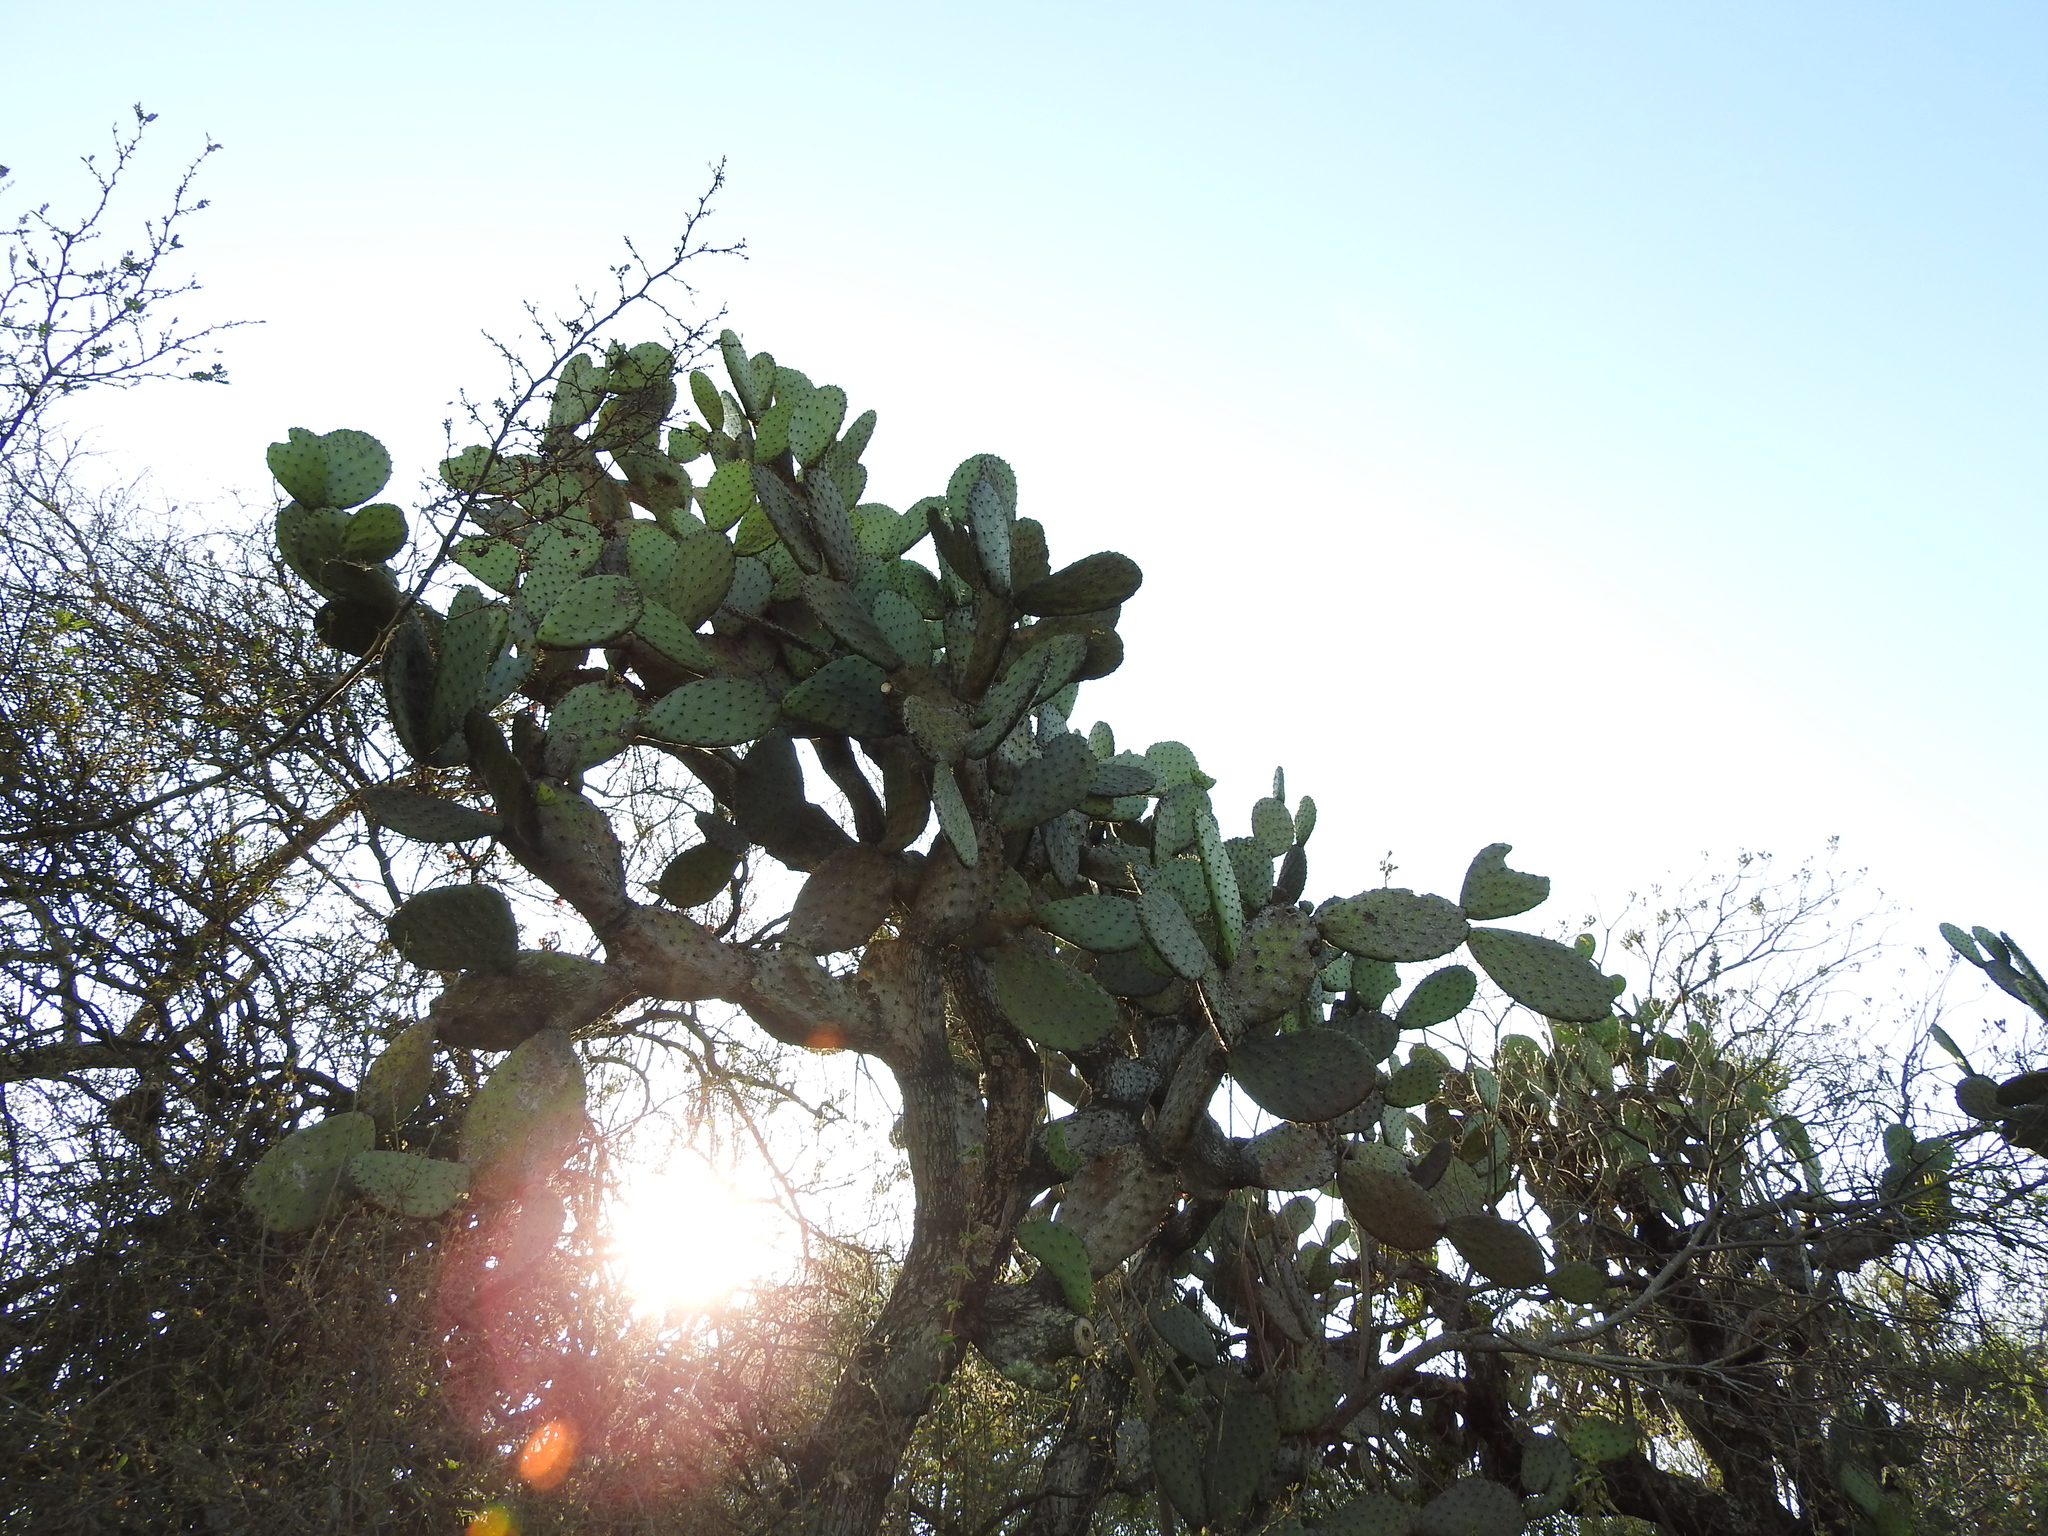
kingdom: Plantae
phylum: Tracheophyta
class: Magnoliopsida
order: Caryophyllales
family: Cactaceae
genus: Opuntia
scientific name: Opuntia jaliscana
